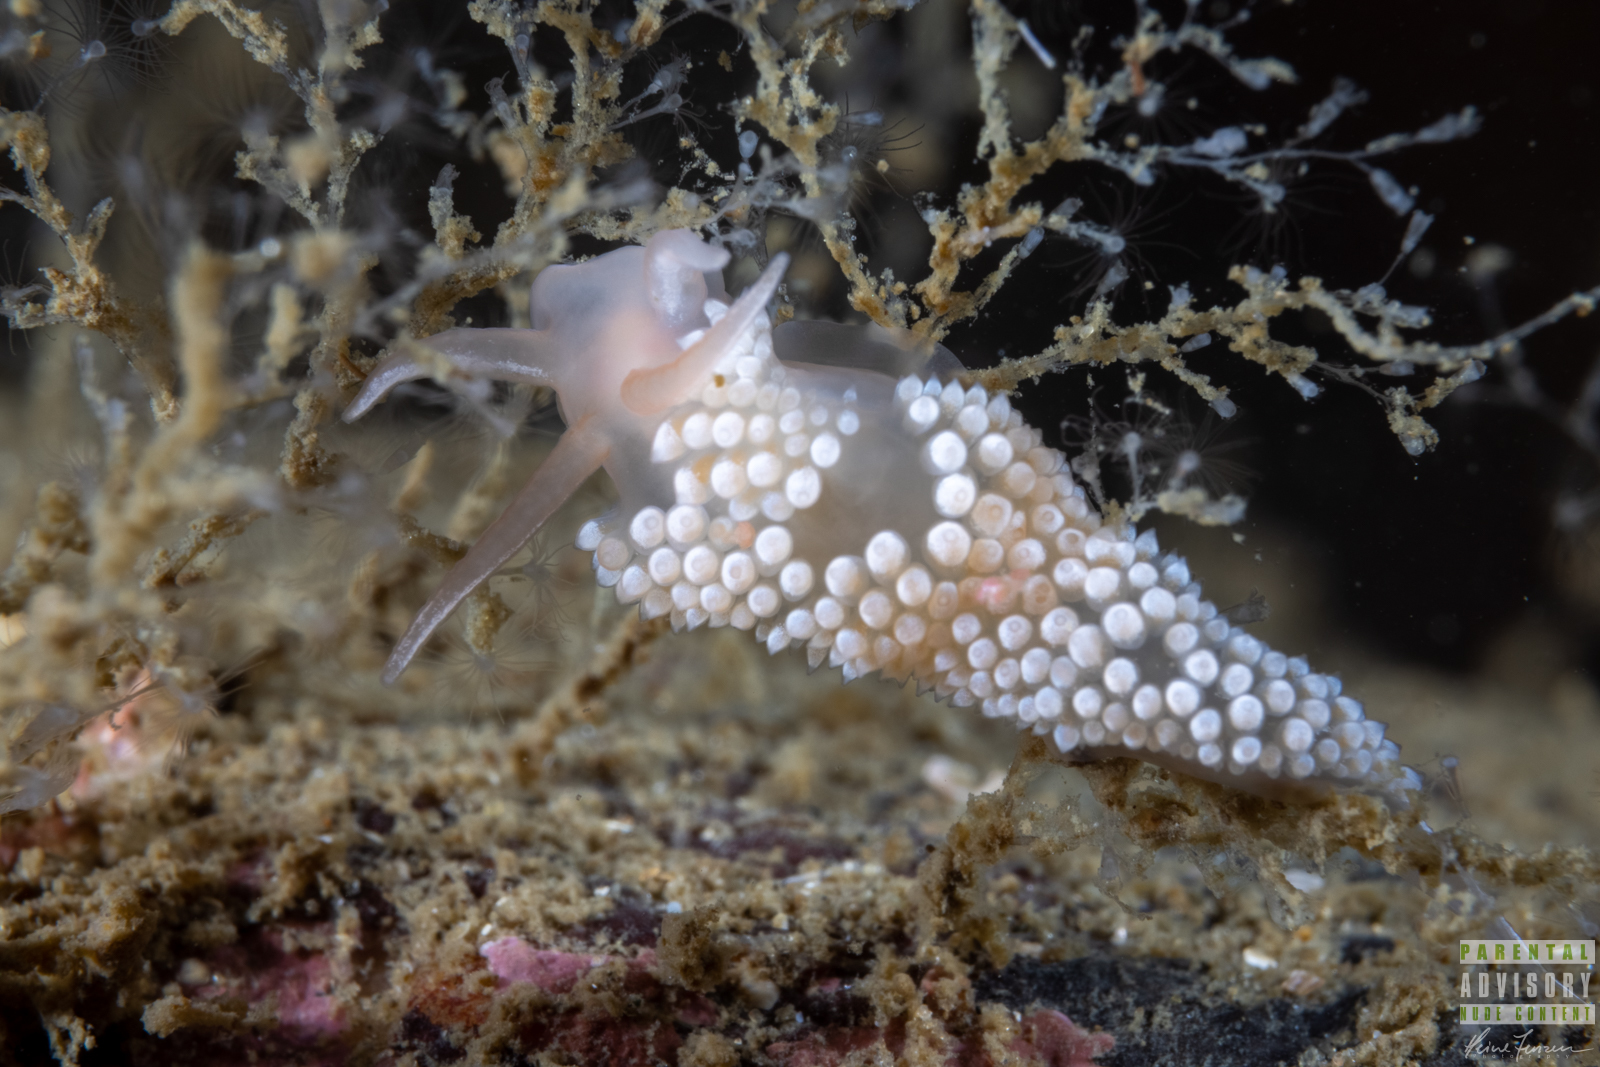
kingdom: Animalia
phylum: Mollusca
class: Gastropoda
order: Nudibranchia
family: Coryphellidae
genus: Coryphella
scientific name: Coryphella verrucosa
